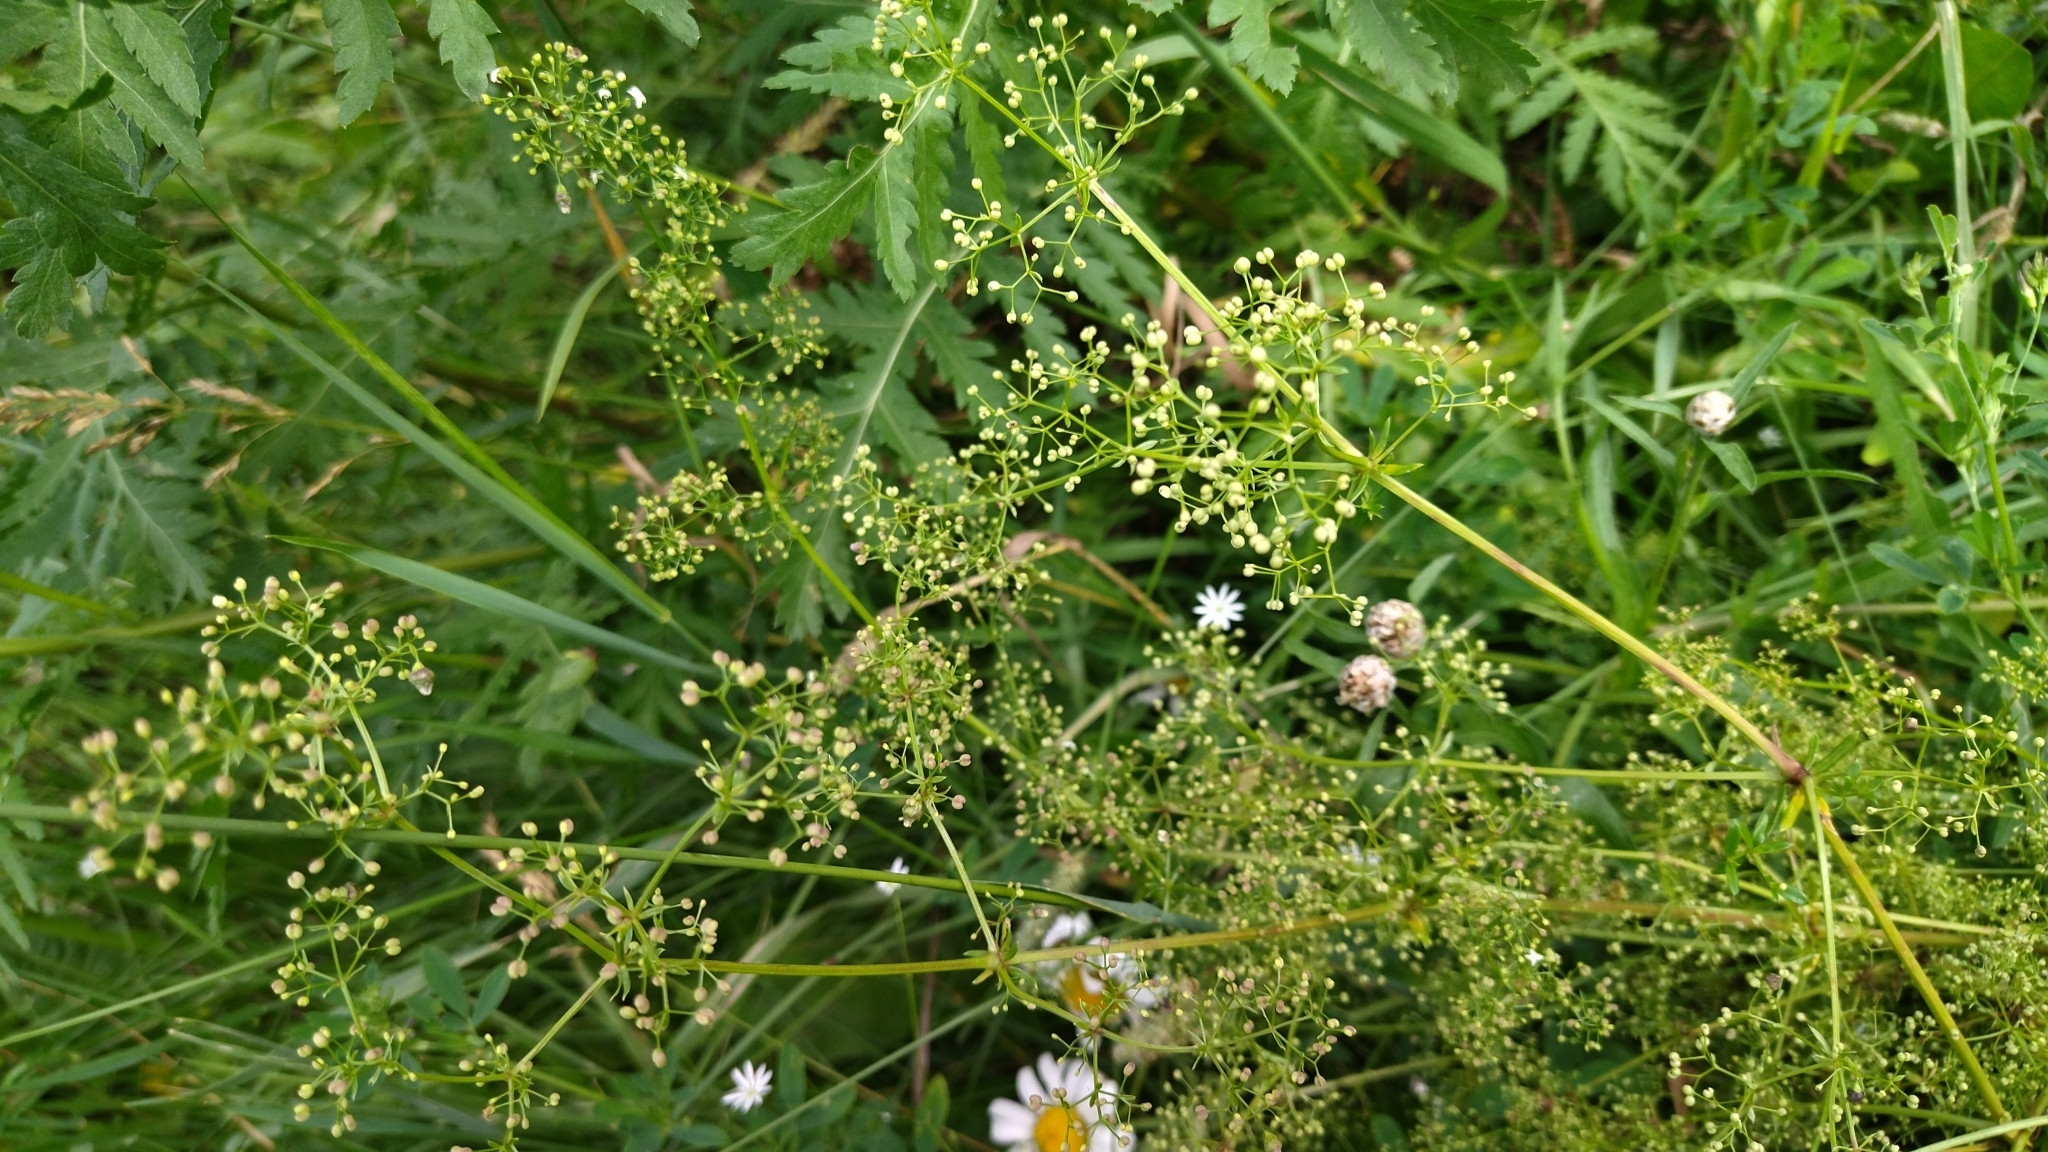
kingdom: Plantae
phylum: Tracheophyta
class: Magnoliopsida
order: Gentianales
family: Rubiaceae
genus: Galium
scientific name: Galium mollugo
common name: Hedge bedstraw
